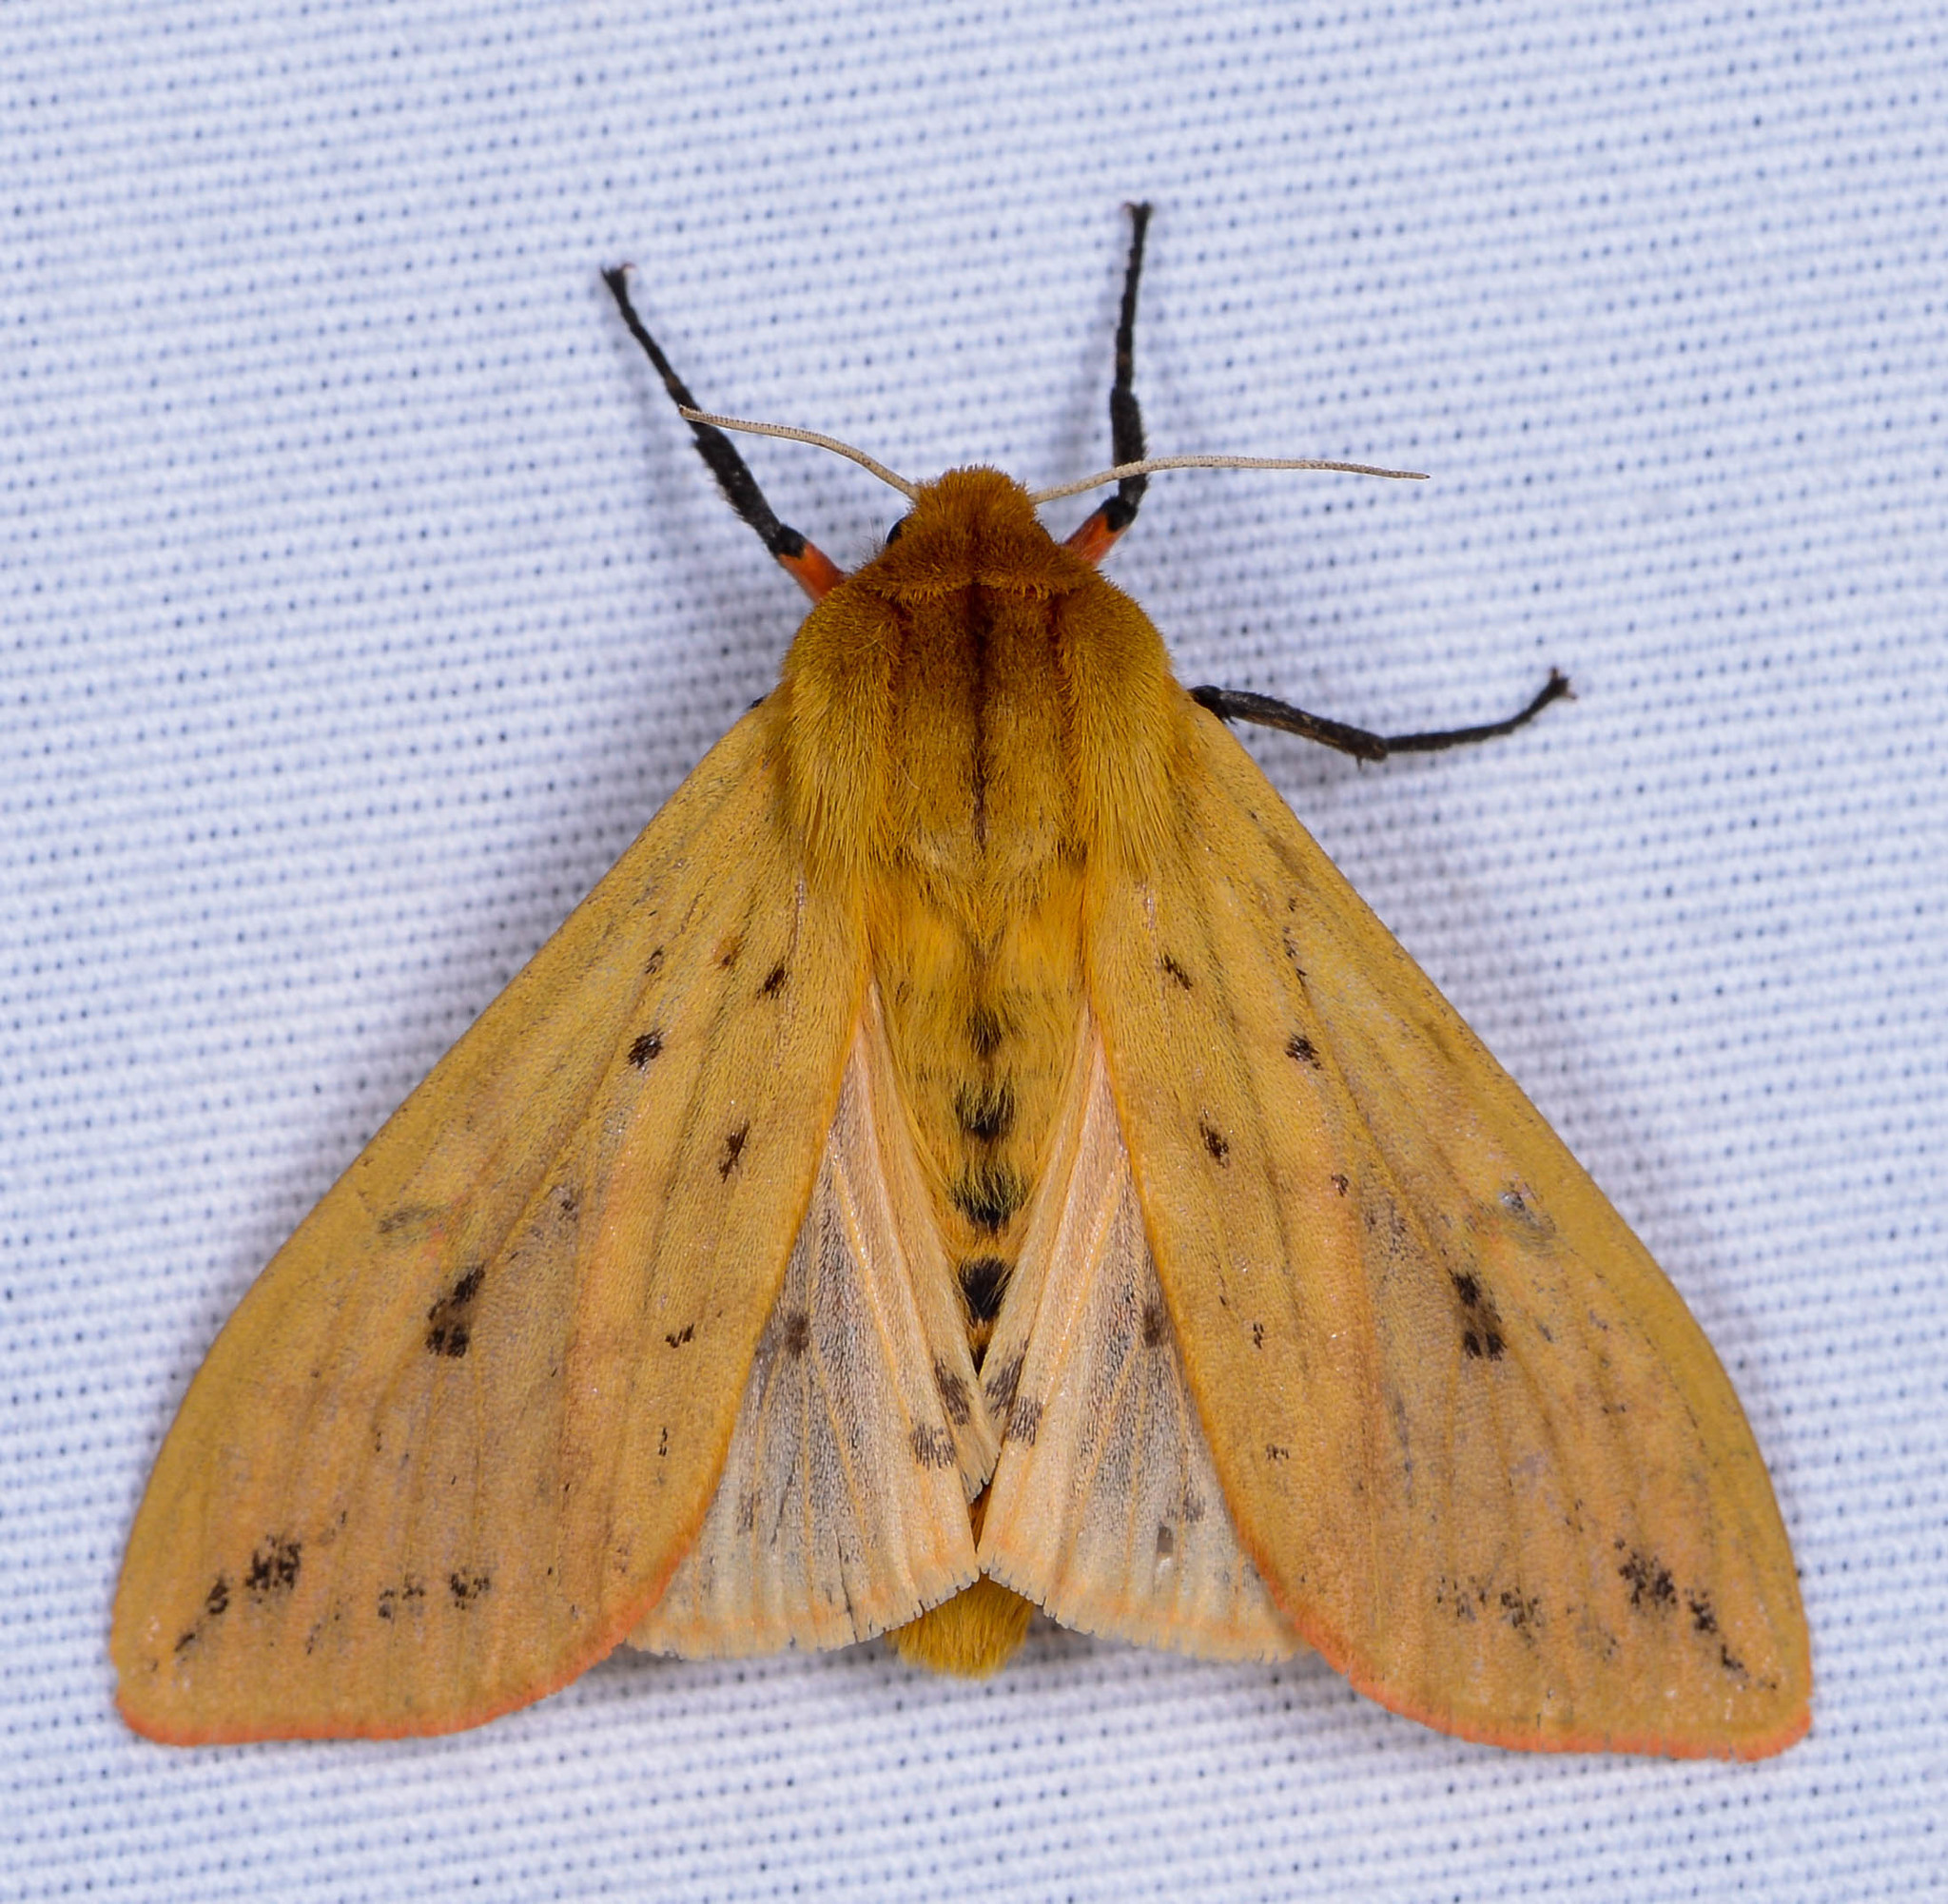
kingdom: Animalia
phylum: Arthropoda
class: Insecta
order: Lepidoptera
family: Erebidae
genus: Pyrrharctia
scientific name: Pyrrharctia isabella
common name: Isabella tiger moth
